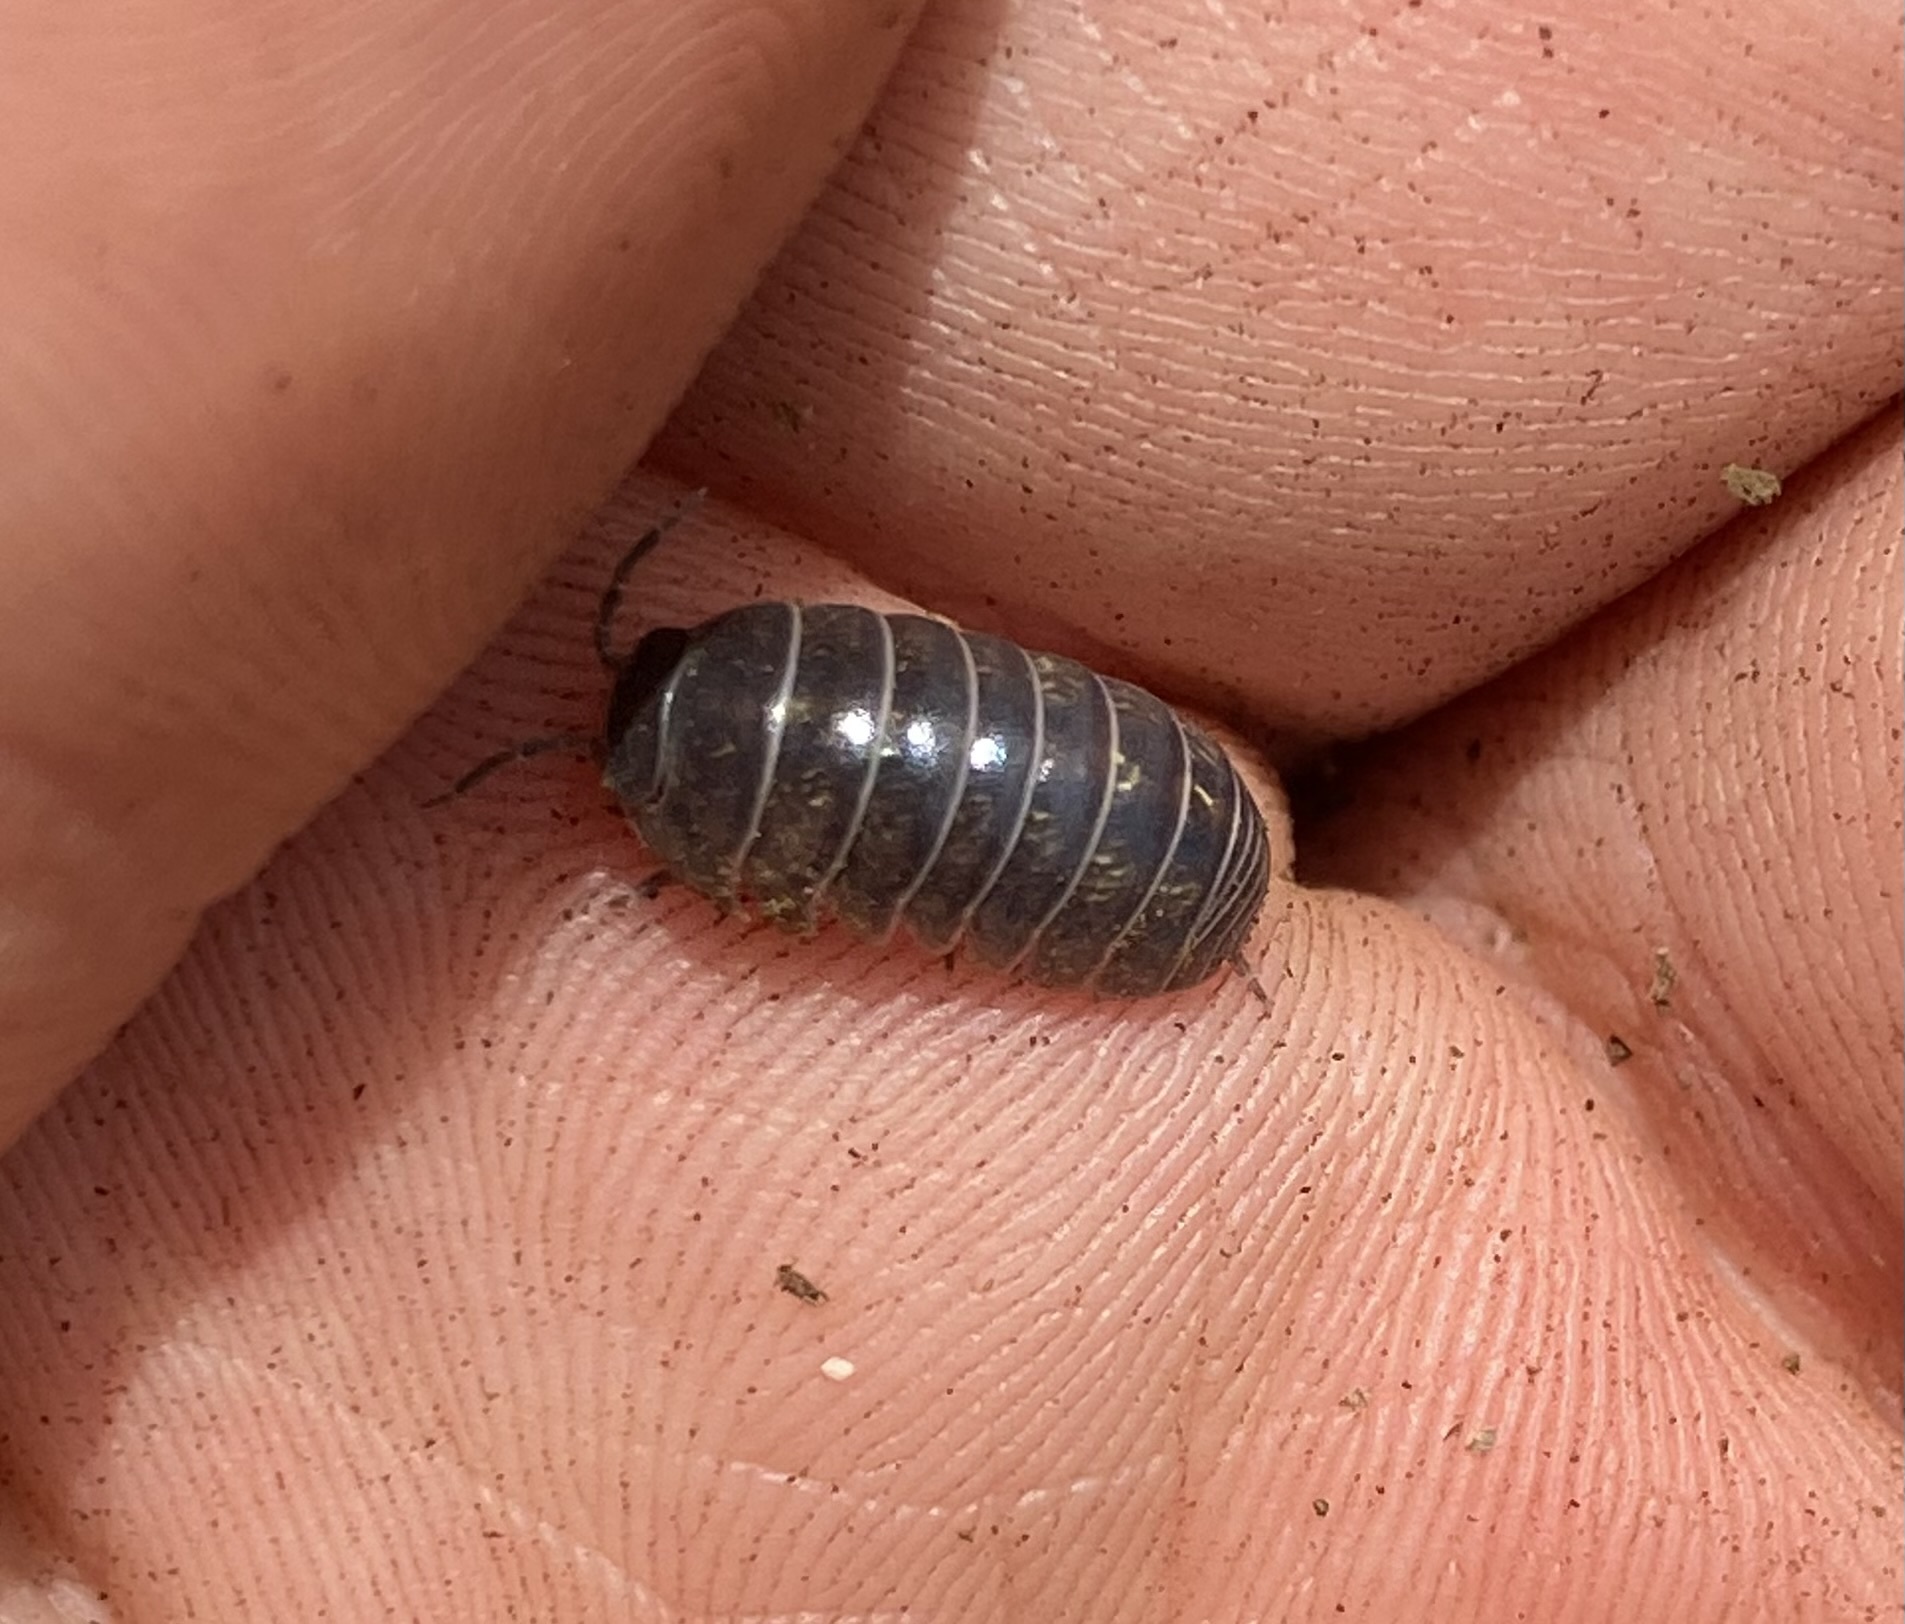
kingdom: Animalia
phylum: Arthropoda
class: Malacostraca
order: Isopoda
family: Armadillidiidae
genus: Armadillidium
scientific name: Armadillidium vulgare
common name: Common pill woodlouse
